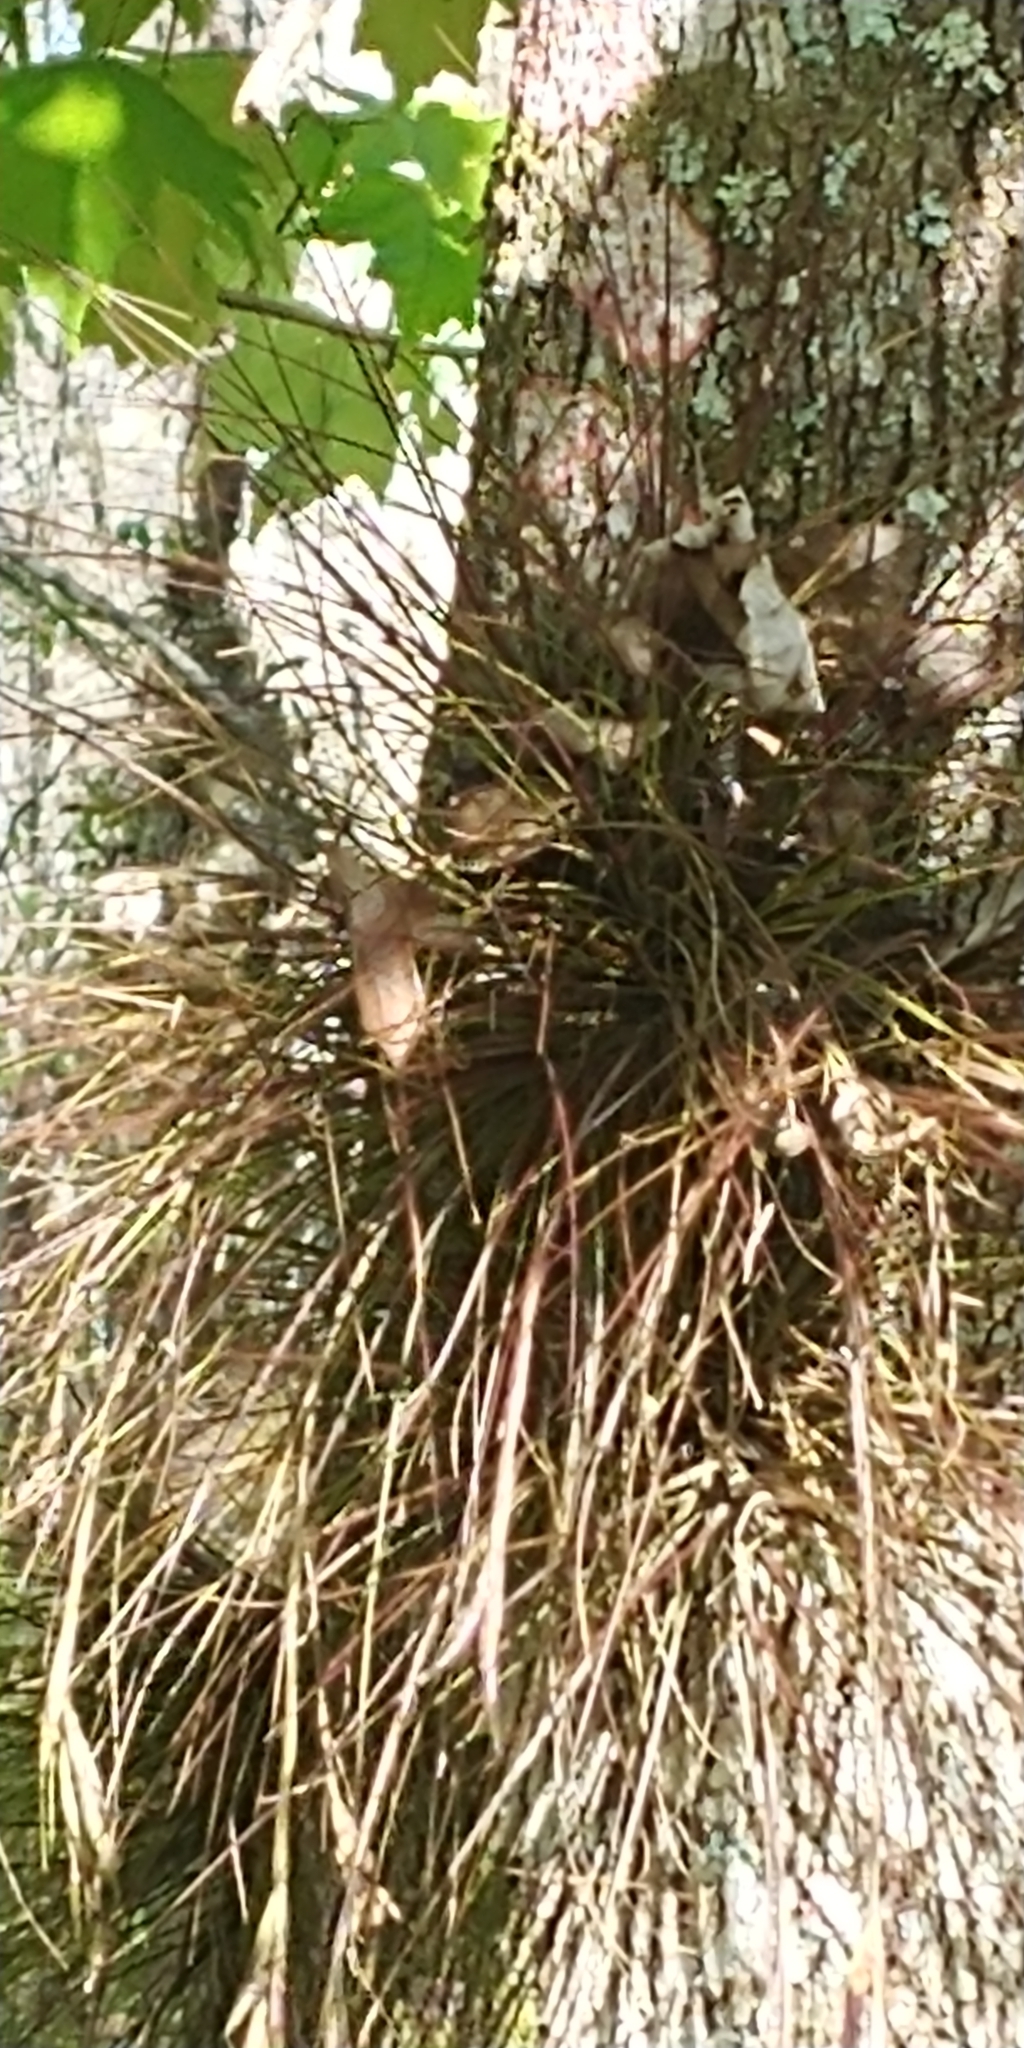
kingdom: Plantae
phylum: Tracheophyta
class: Liliopsida
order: Poales
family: Bromeliaceae
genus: Tillandsia
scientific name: Tillandsia setacea
